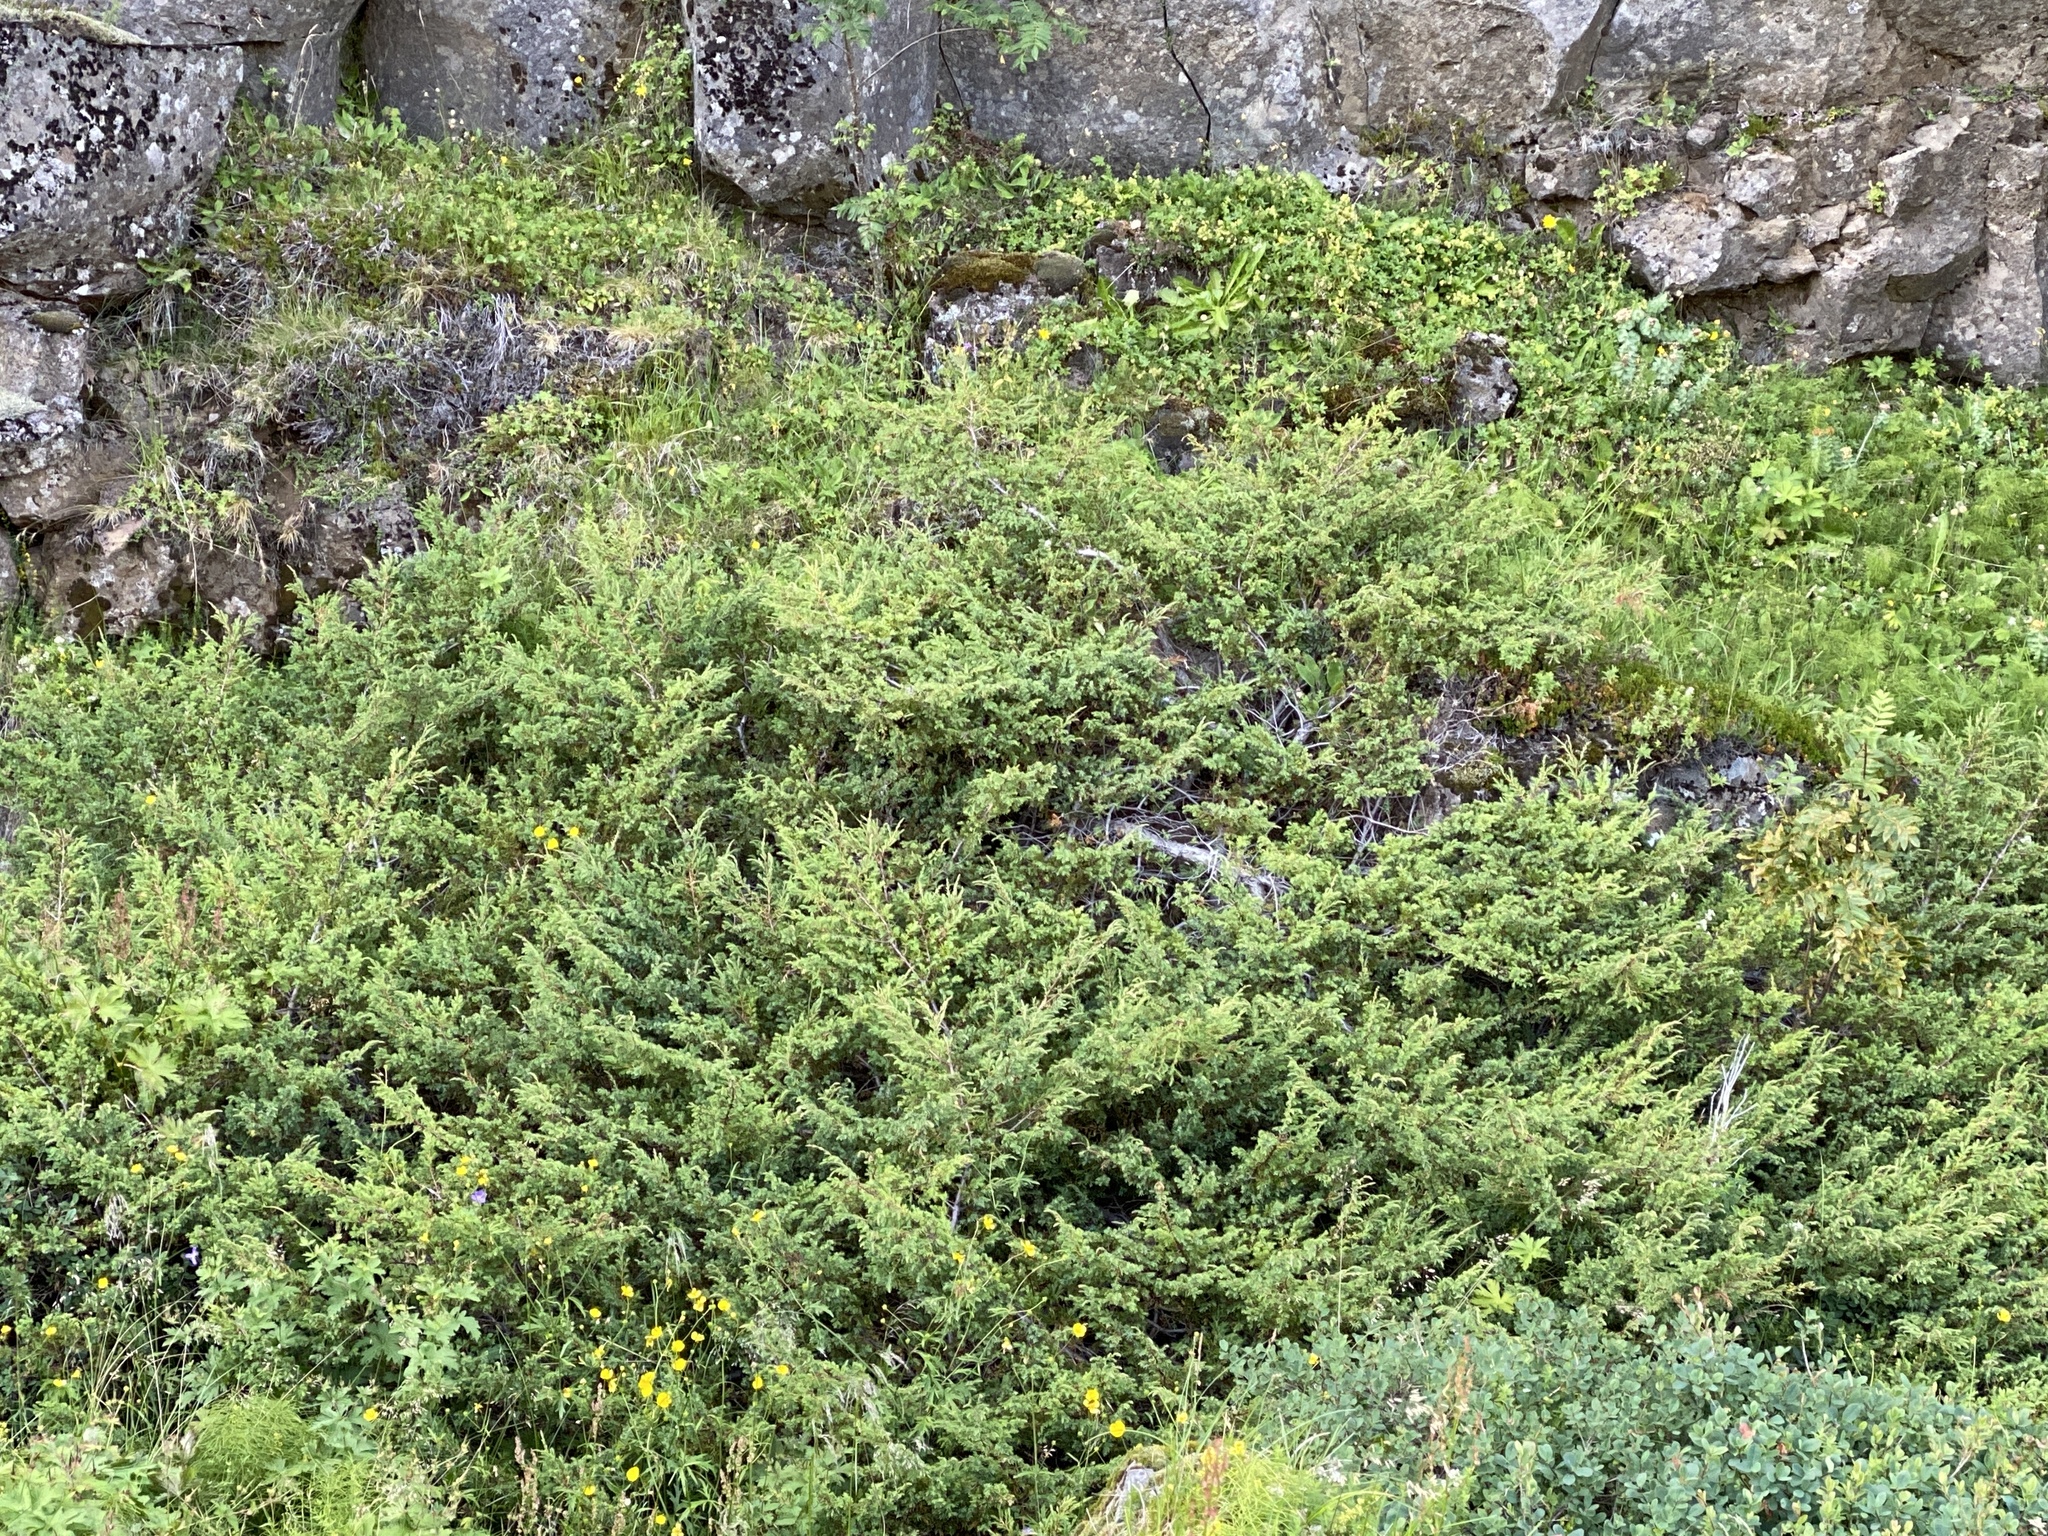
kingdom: Plantae
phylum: Tracheophyta
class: Pinopsida
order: Pinales
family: Cupressaceae
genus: Juniperus
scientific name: Juniperus communis
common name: Common juniper
